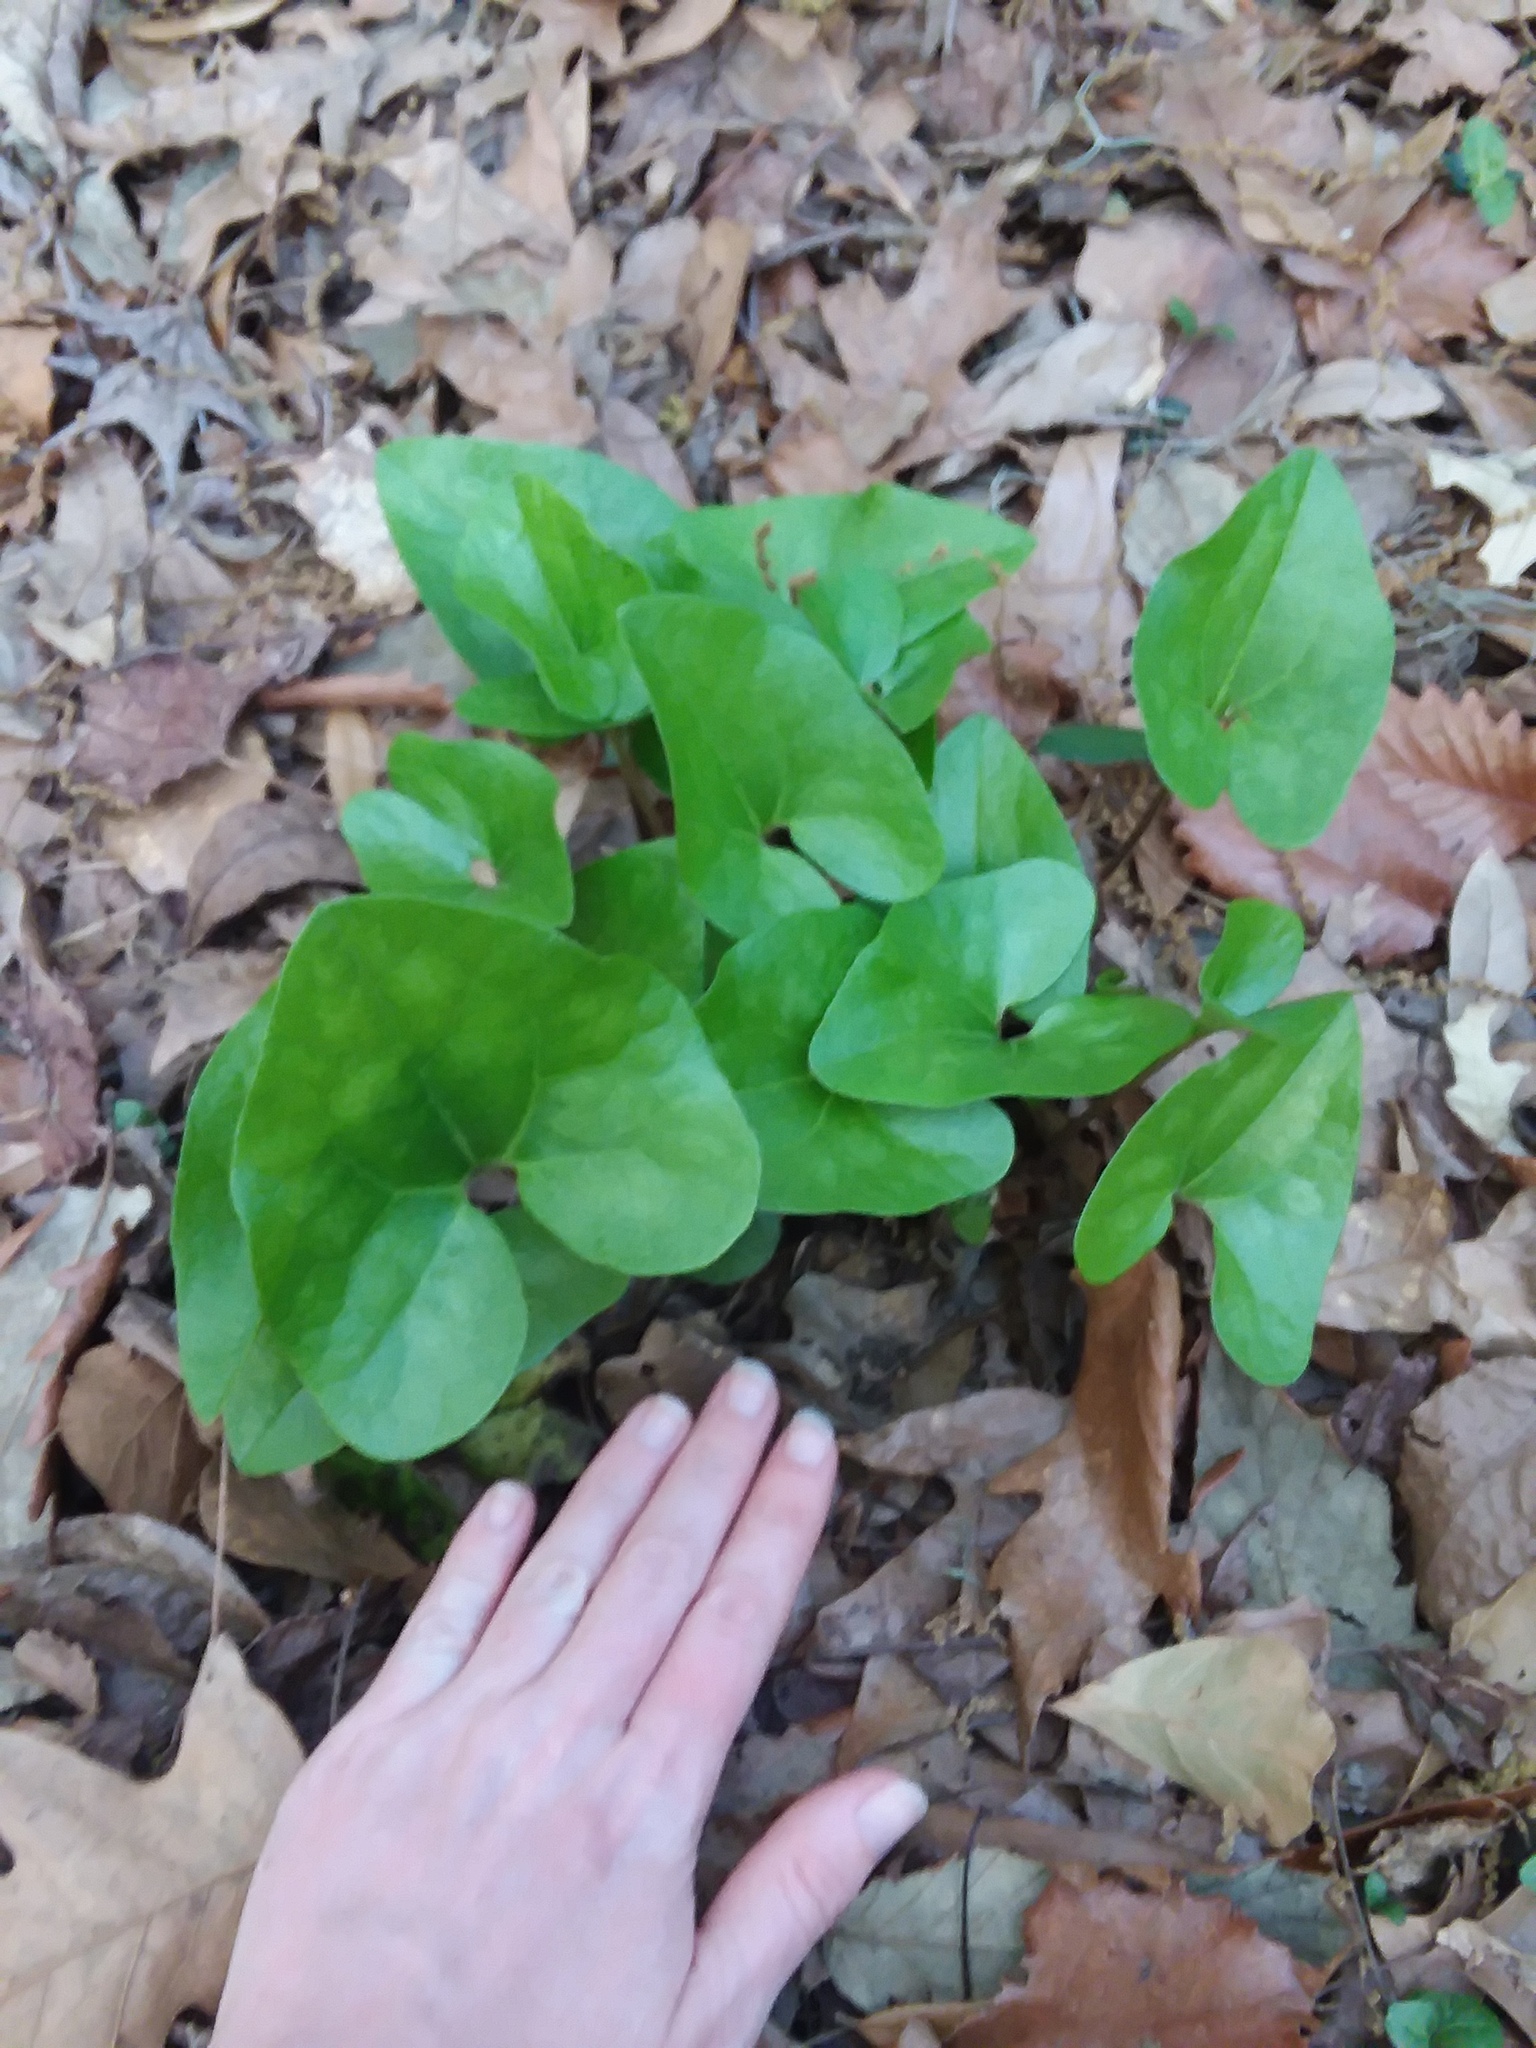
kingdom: Plantae
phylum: Tracheophyta
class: Magnoliopsida
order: Piperales
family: Aristolochiaceae
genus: Hexastylis
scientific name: Hexastylis arifolia
